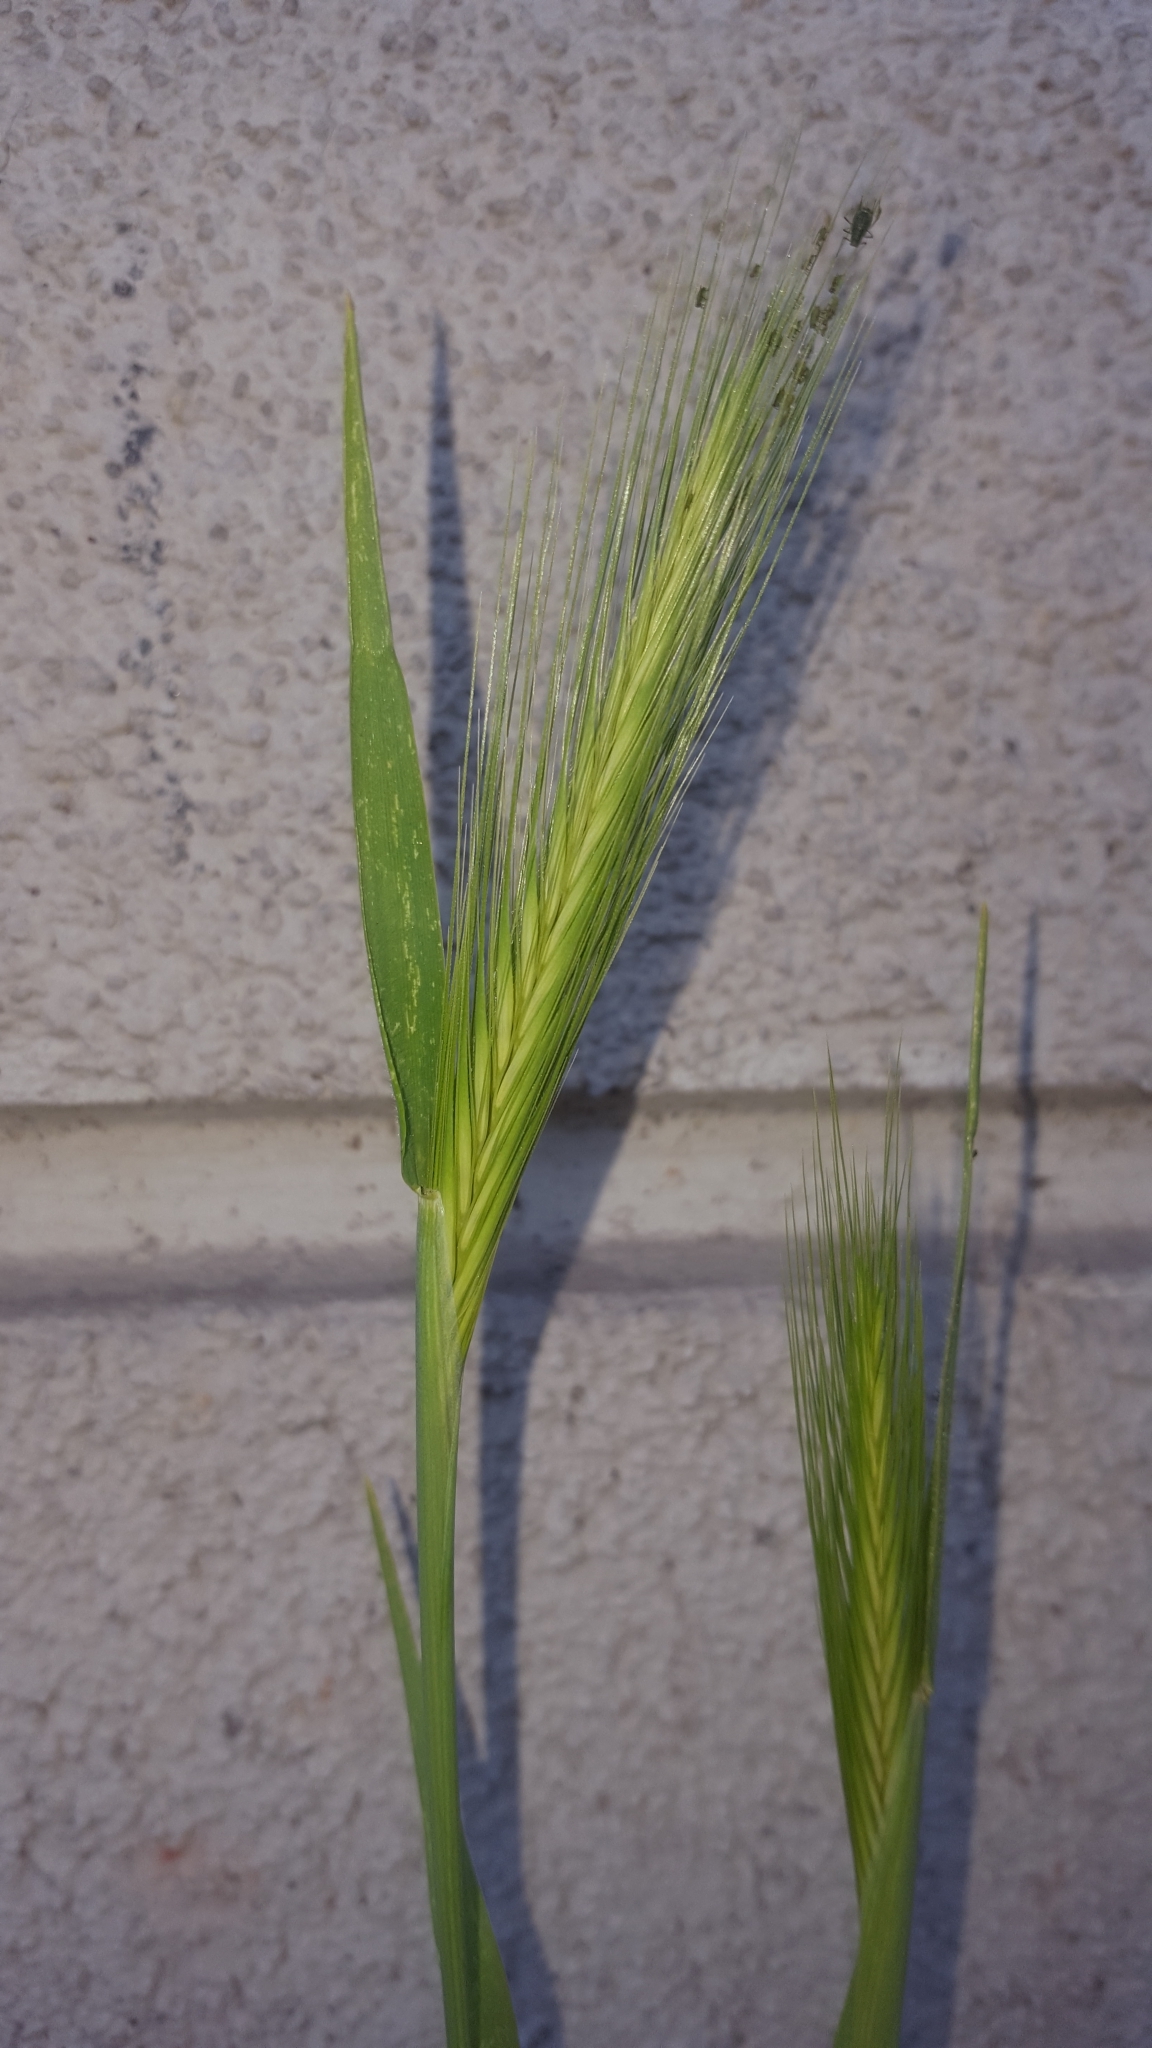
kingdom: Plantae
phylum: Tracheophyta
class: Liliopsida
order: Poales
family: Poaceae
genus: Hordeum
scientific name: Hordeum murinum
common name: Wall barley
